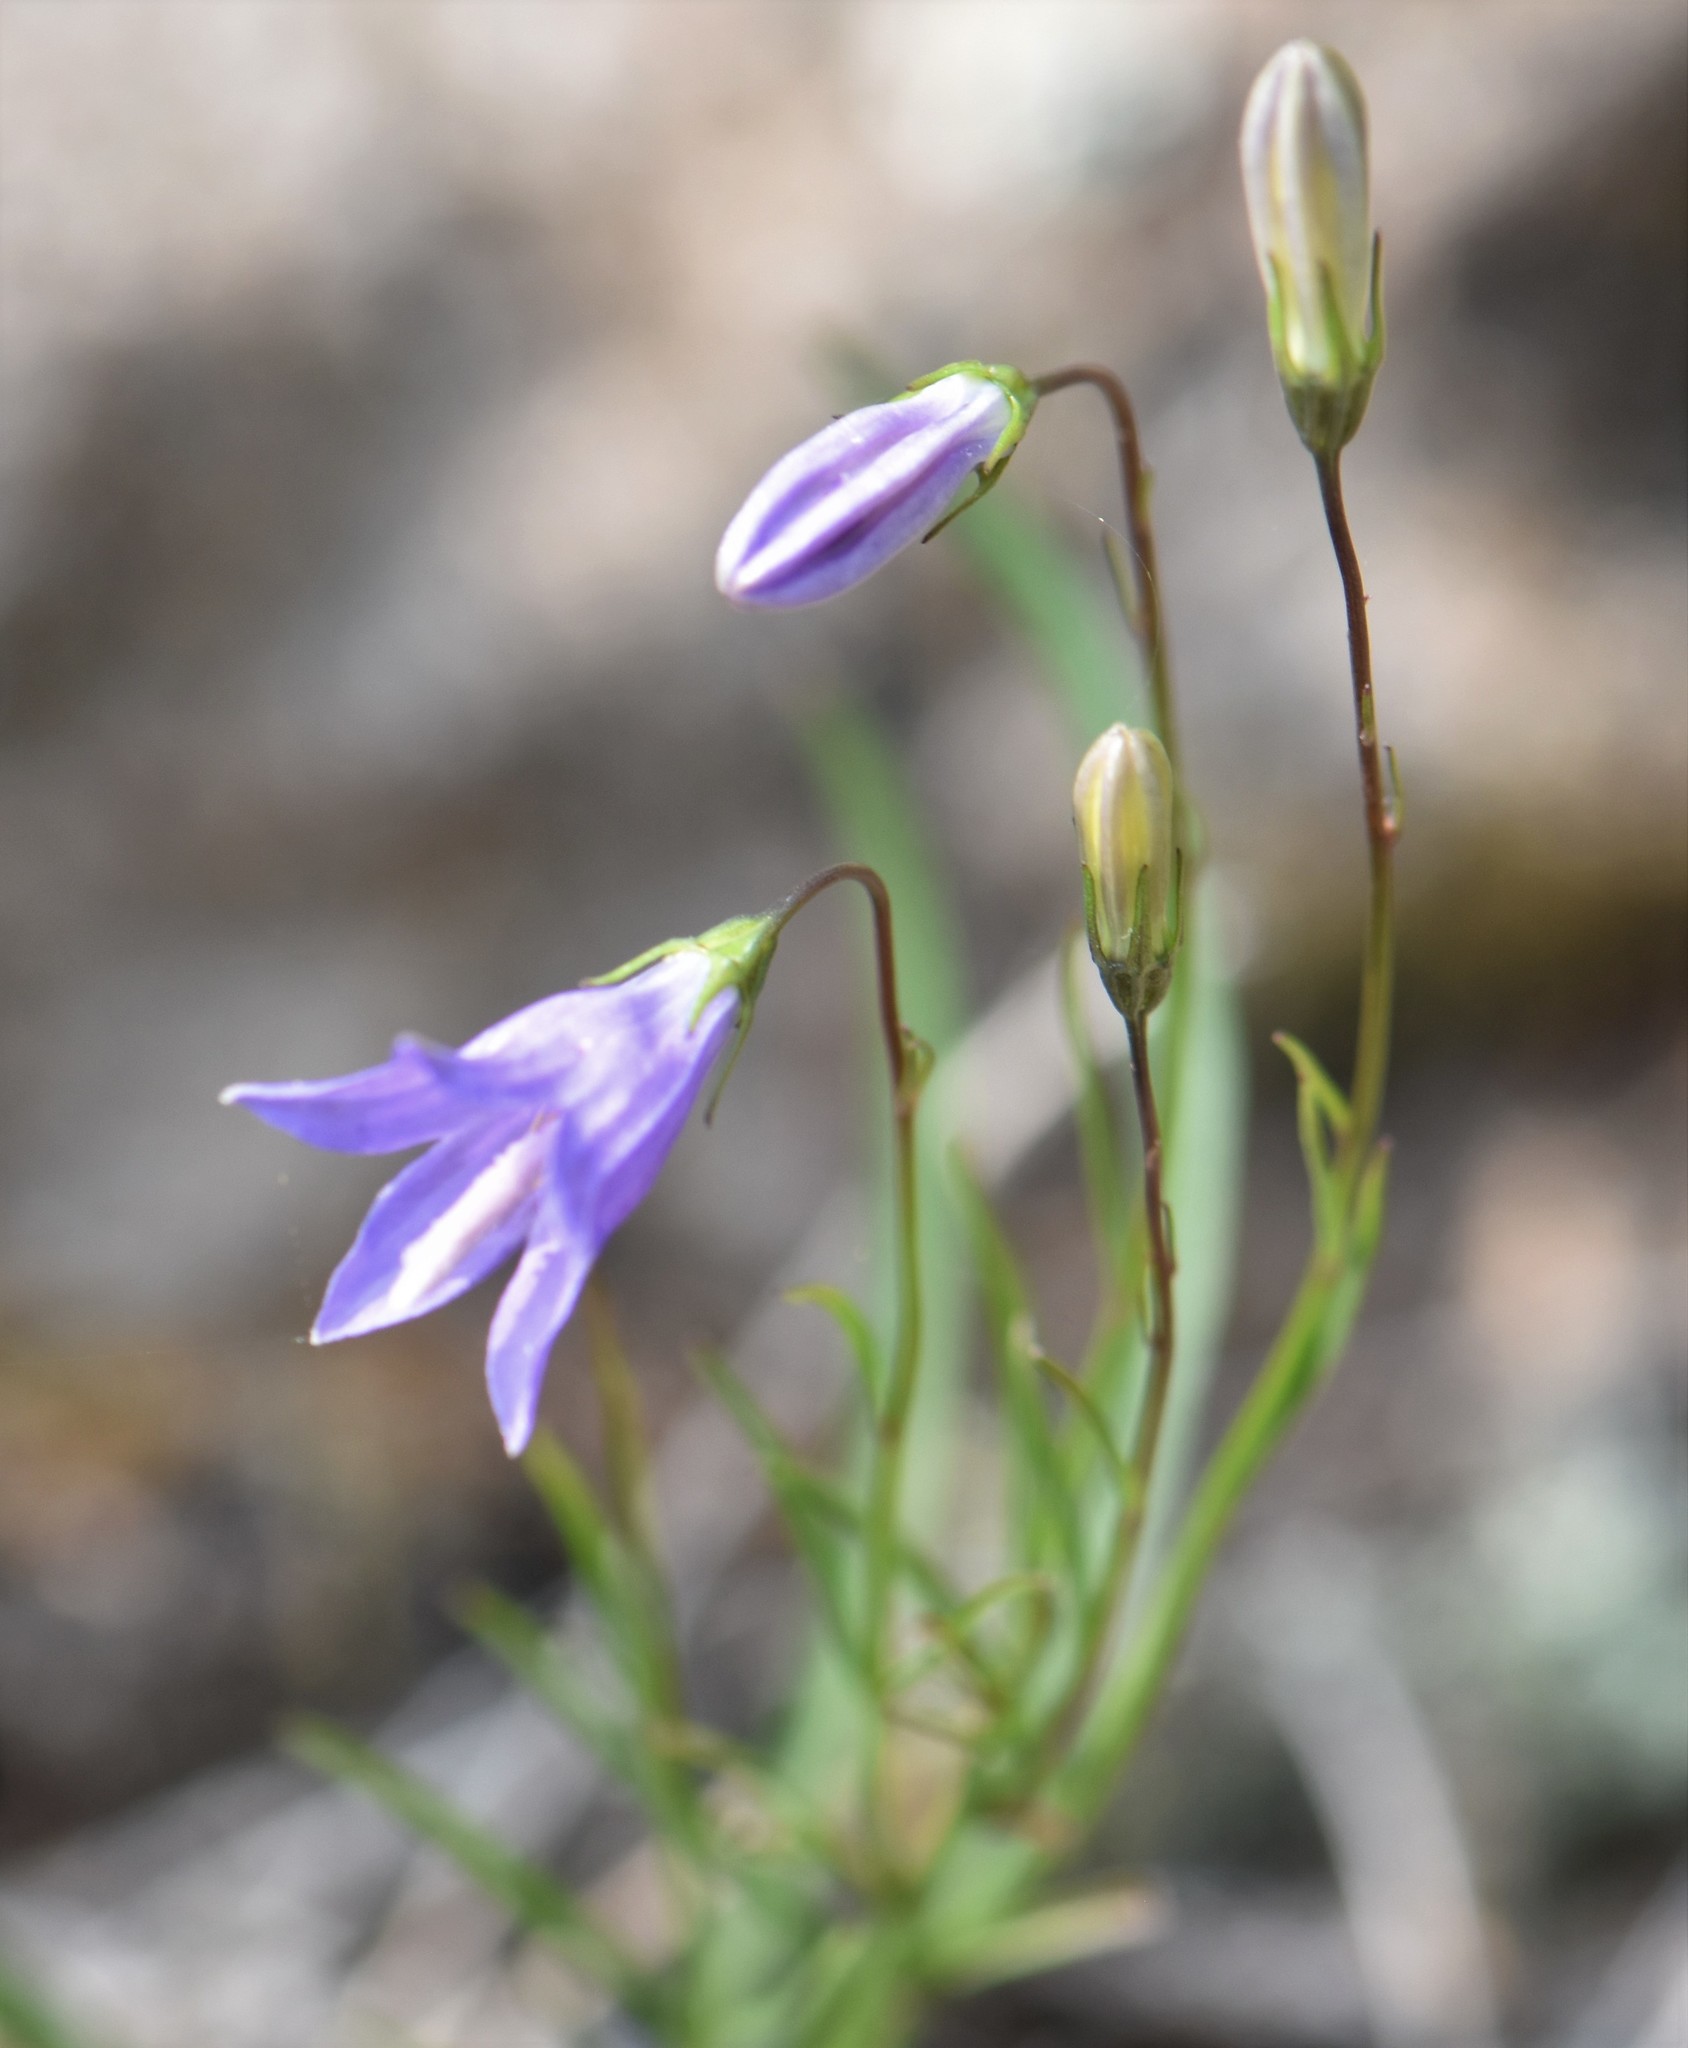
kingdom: Plantae
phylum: Tracheophyta
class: Magnoliopsida
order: Asterales
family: Campanulaceae
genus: Campanula
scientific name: Campanula alaskana
